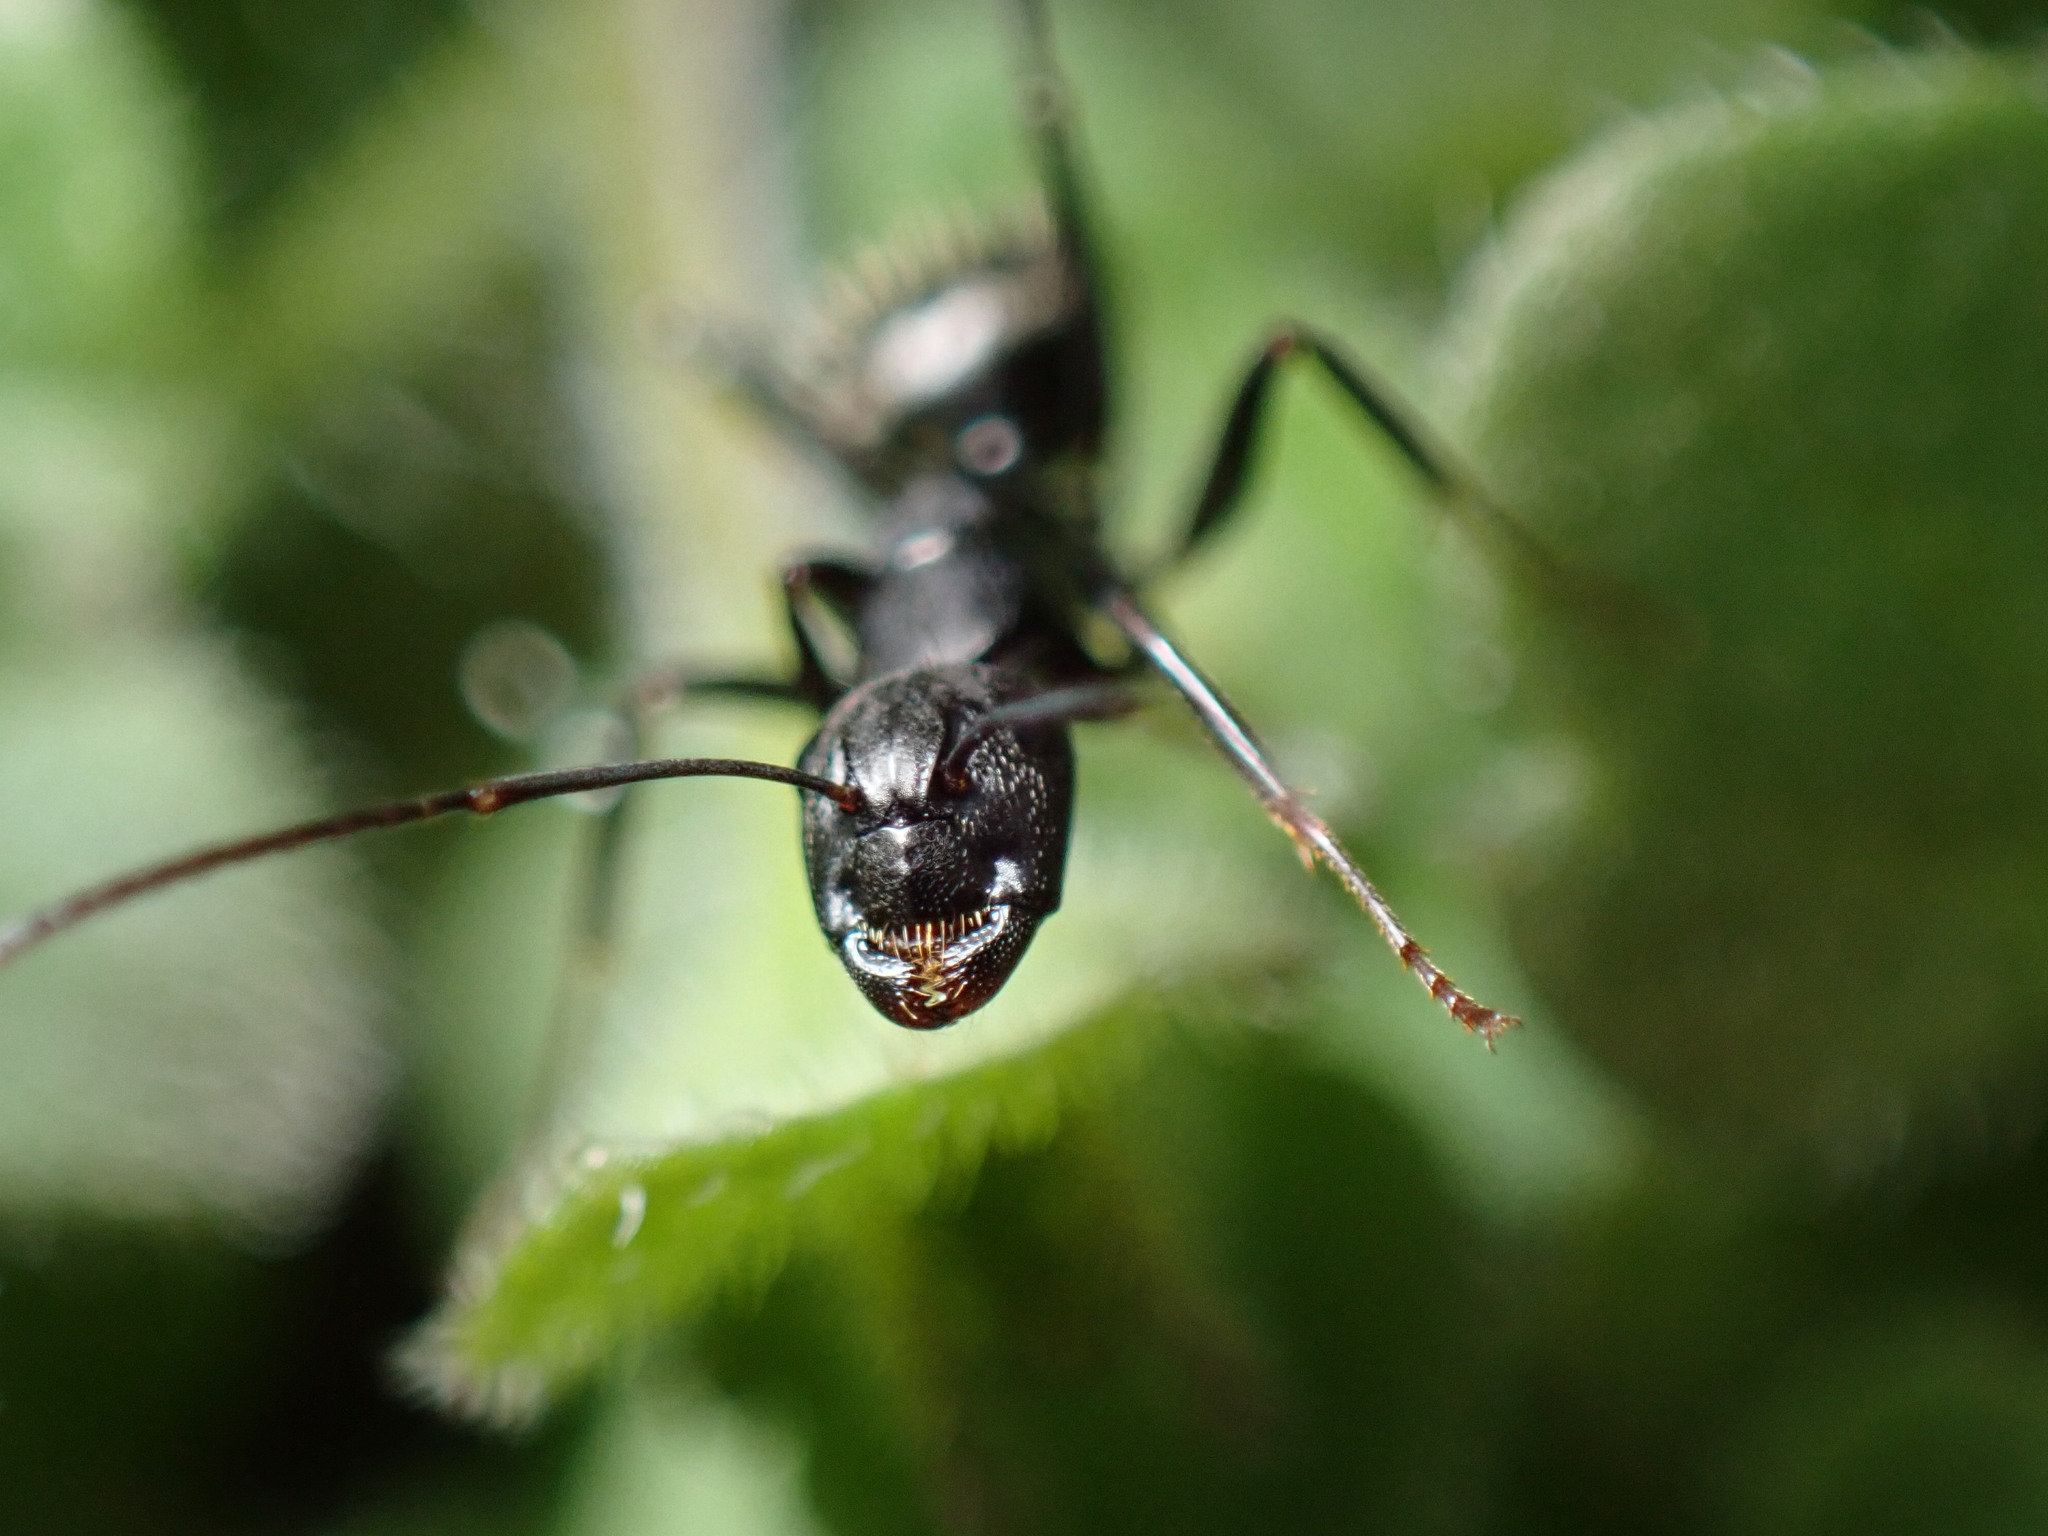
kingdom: Animalia
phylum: Arthropoda
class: Insecta
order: Hymenoptera
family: Formicidae
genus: Camponotus
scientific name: Camponotus pennsylvanicus
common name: Black carpenter ant
